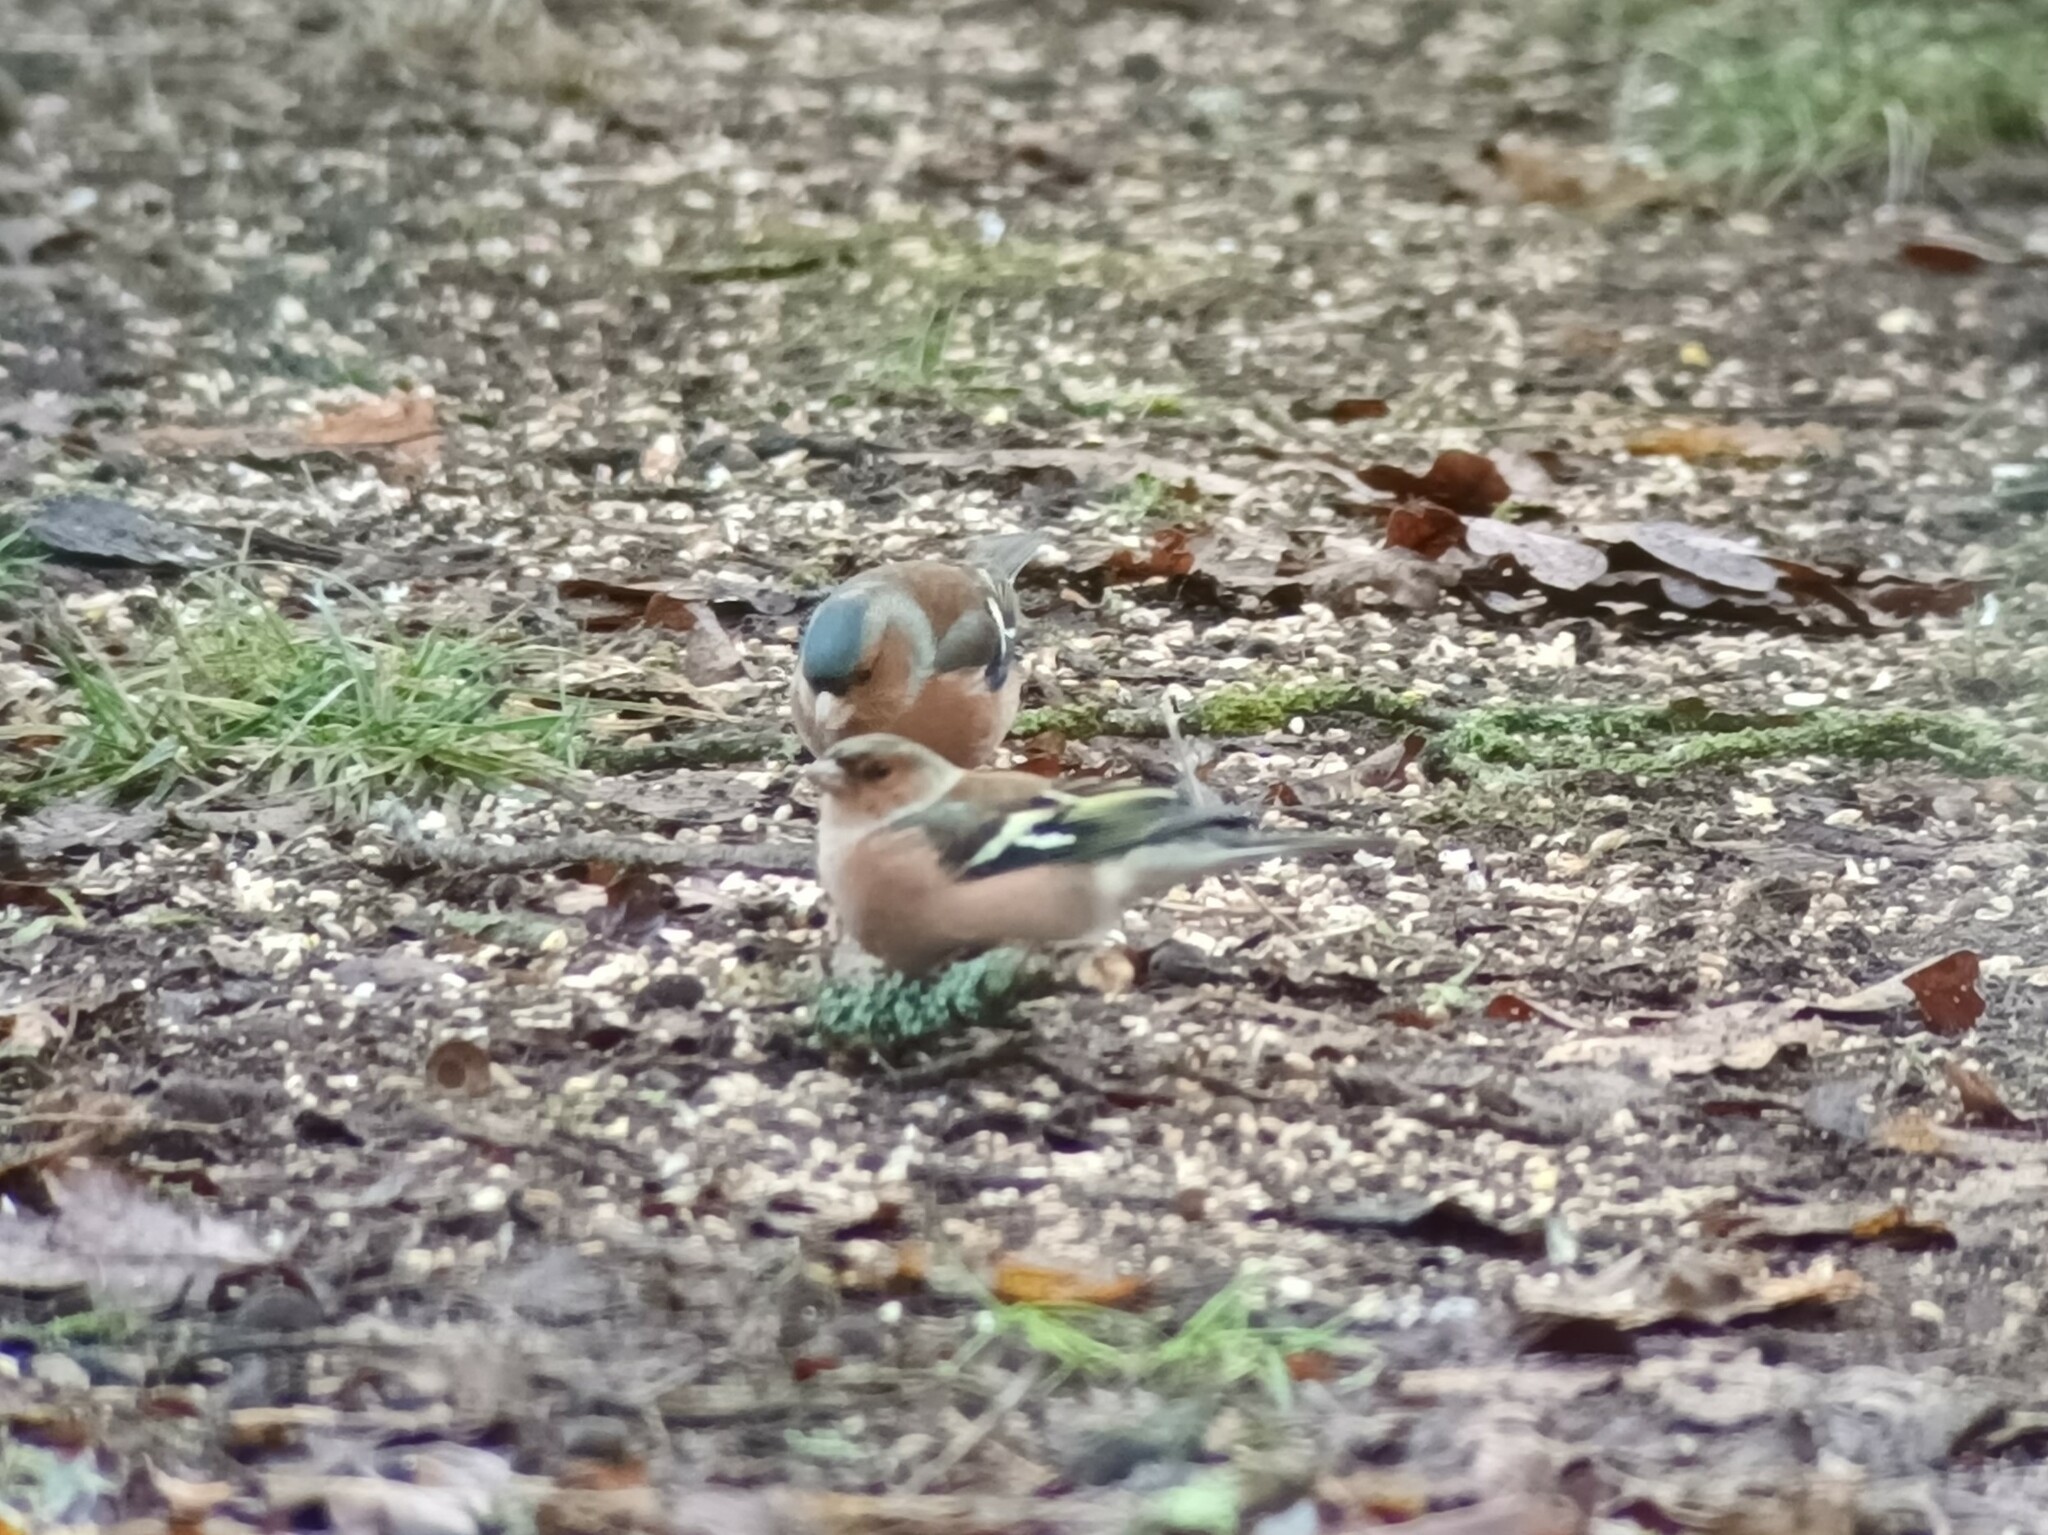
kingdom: Animalia
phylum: Chordata
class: Aves
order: Passeriformes
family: Fringillidae
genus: Fringilla
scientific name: Fringilla coelebs
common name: Common chaffinch
